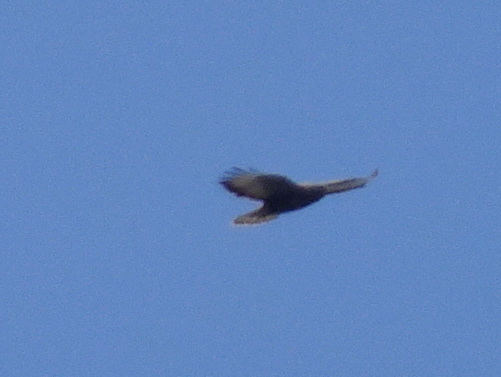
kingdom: Animalia
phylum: Chordata
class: Aves
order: Accipitriformes
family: Accipitridae
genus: Buteo
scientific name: Buteo buteo
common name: Common buzzard
